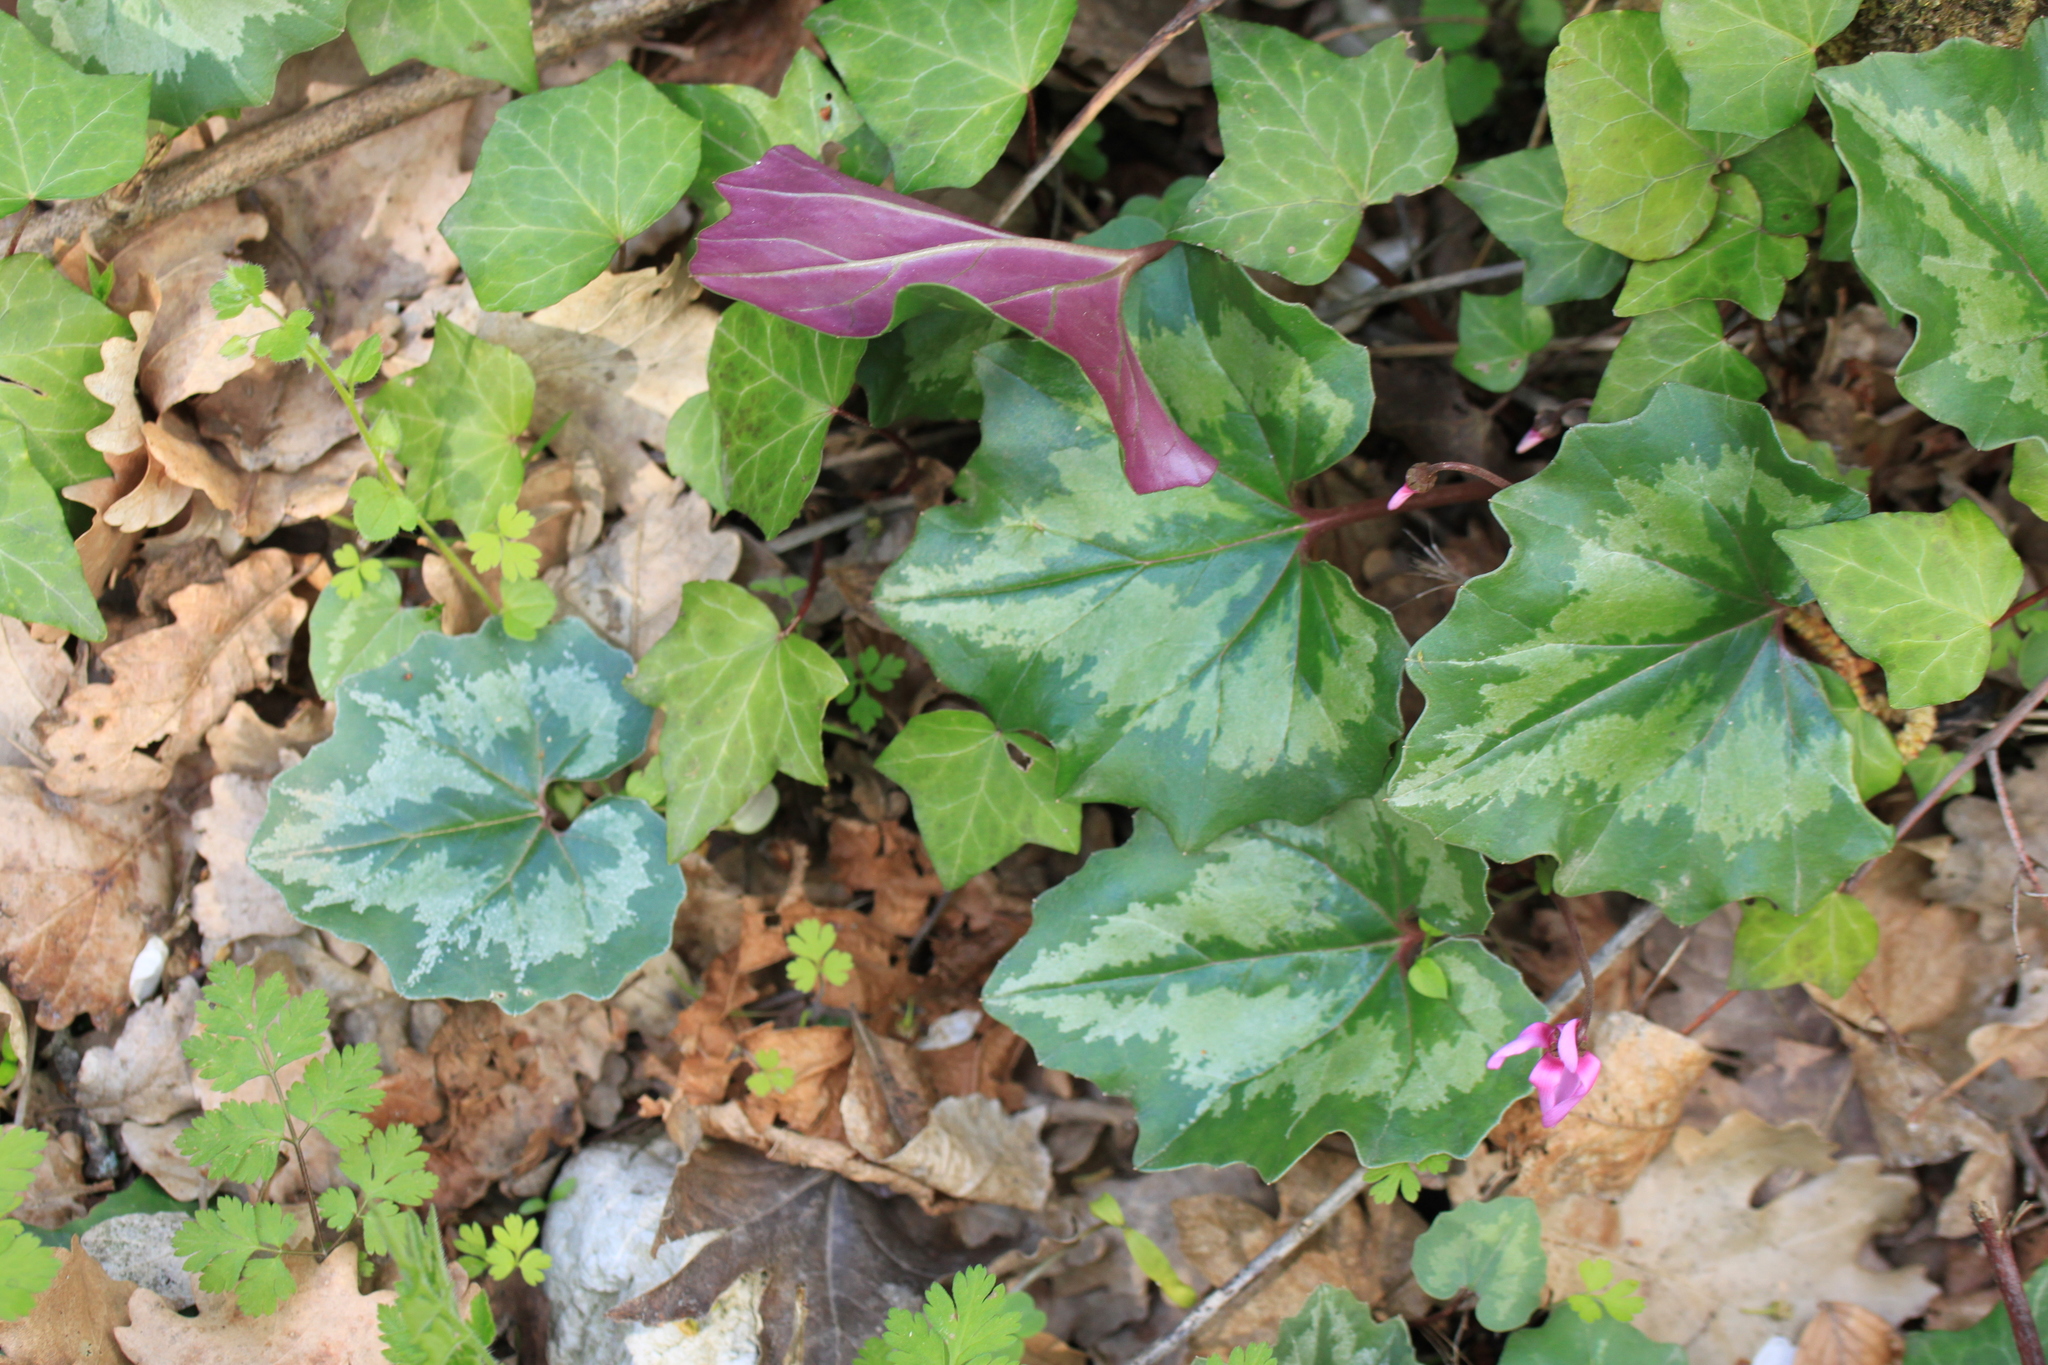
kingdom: Plantae
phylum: Tracheophyta
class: Magnoliopsida
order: Ericales
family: Primulaceae
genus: Cyclamen
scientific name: Cyclamen repandum
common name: Spring sowbread
